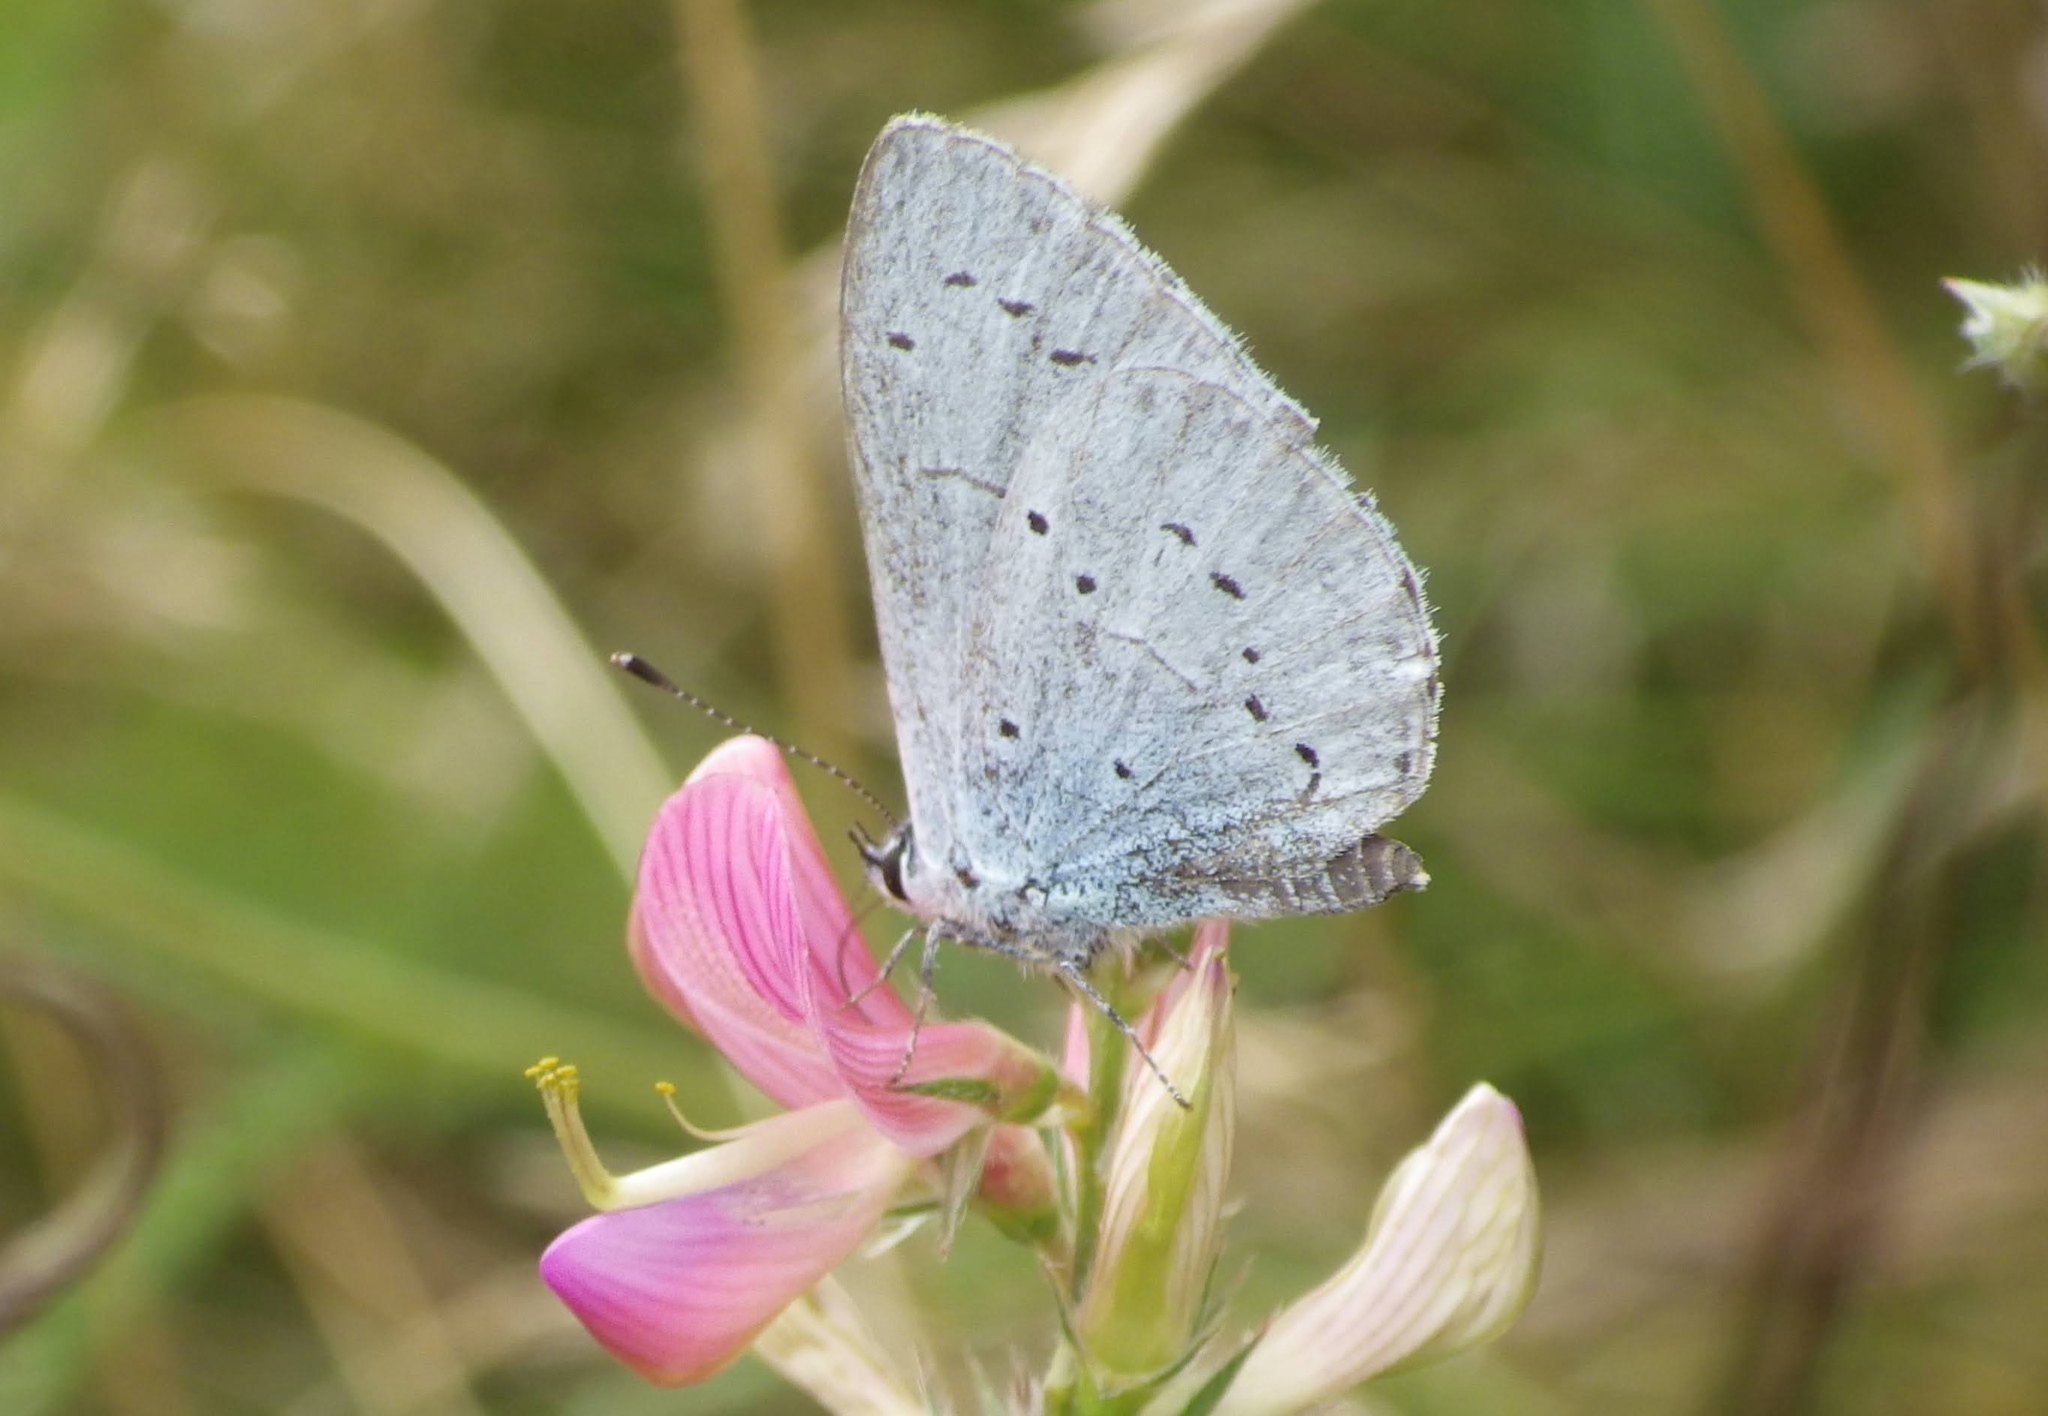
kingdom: Animalia
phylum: Arthropoda
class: Insecta
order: Lepidoptera
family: Lycaenidae
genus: Celastrina
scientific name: Celastrina argiolus
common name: Holly blue
